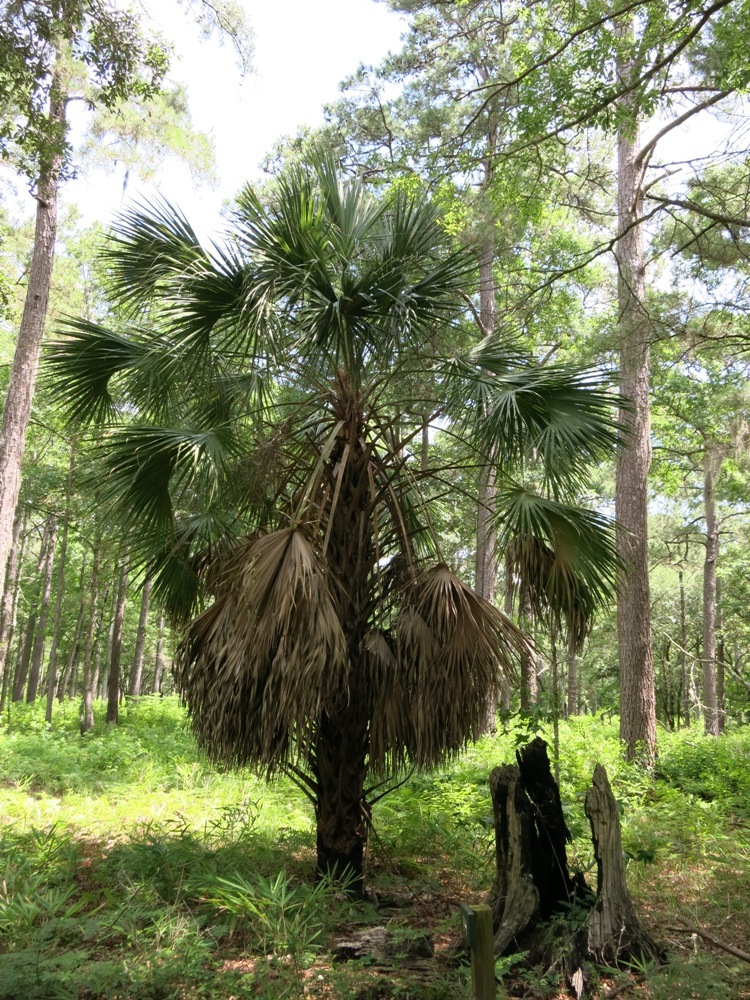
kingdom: Plantae
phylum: Tracheophyta
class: Liliopsida
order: Arecales
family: Arecaceae
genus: Sabal
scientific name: Sabal palmetto
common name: Blue palmetto
